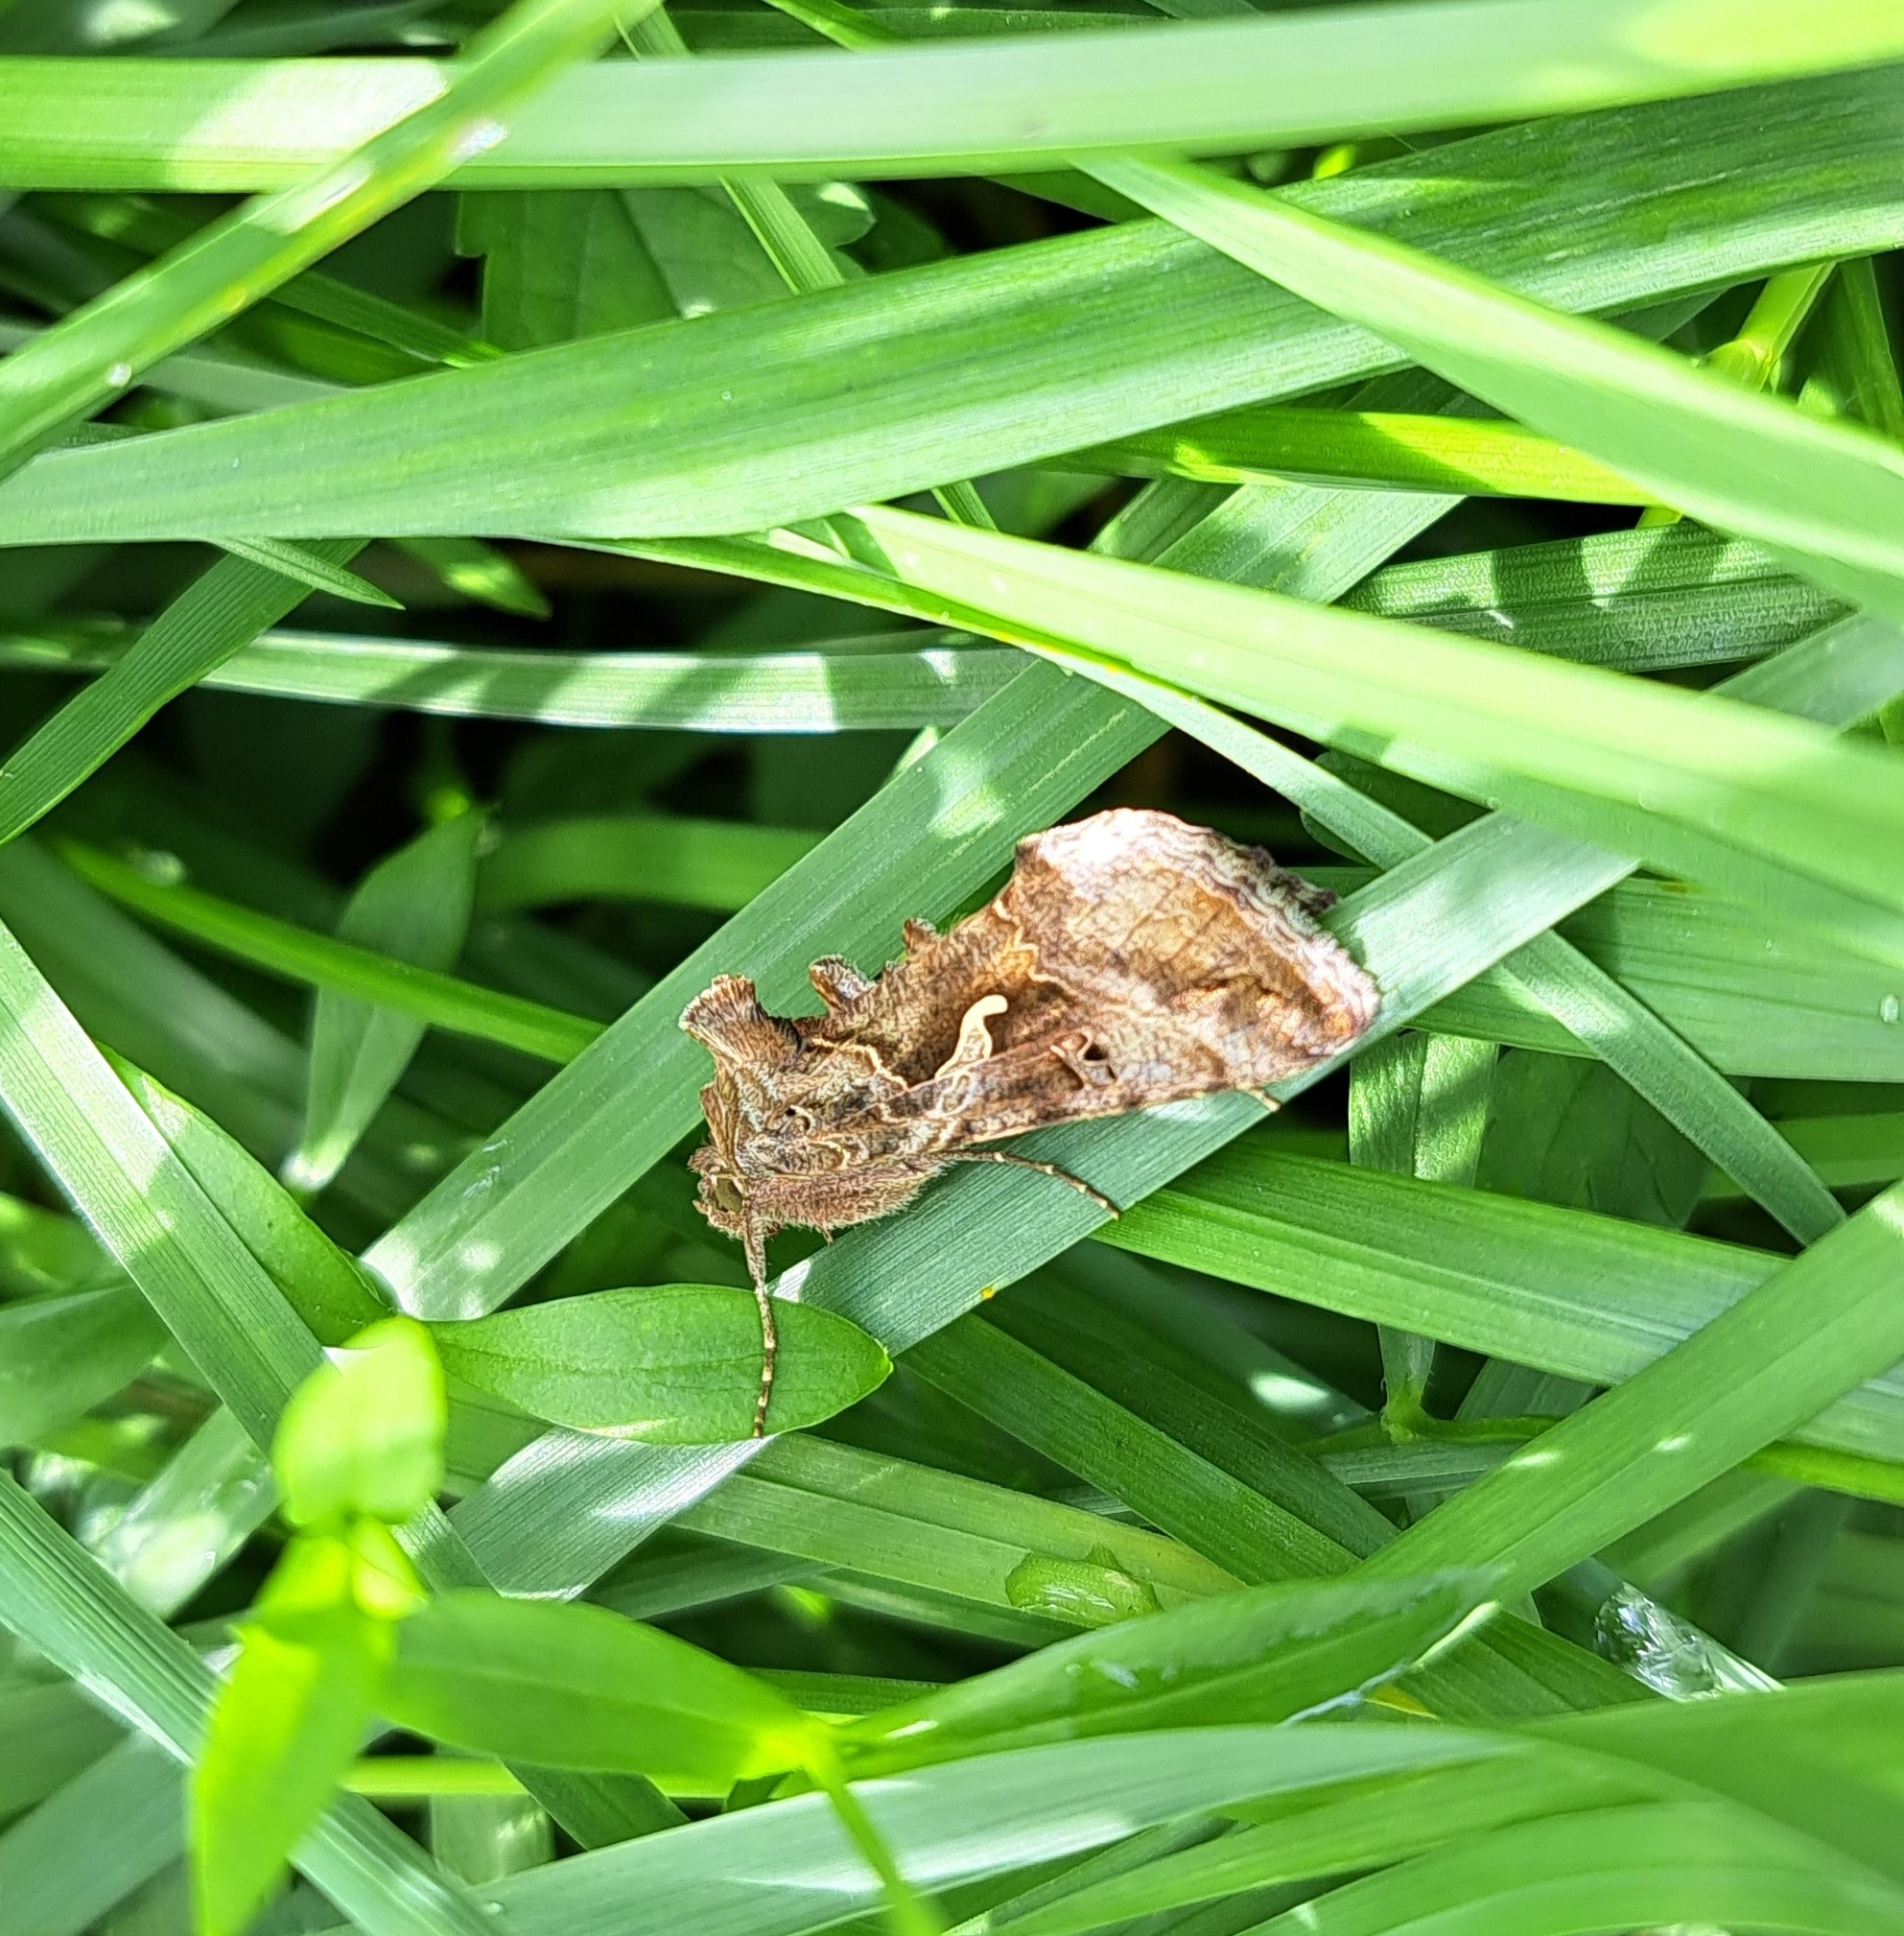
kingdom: Animalia
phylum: Arthropoda
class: Insecta
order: Lepidoptera
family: Noctuidae
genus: Autographa
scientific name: Autographa gamma
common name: Silver y
